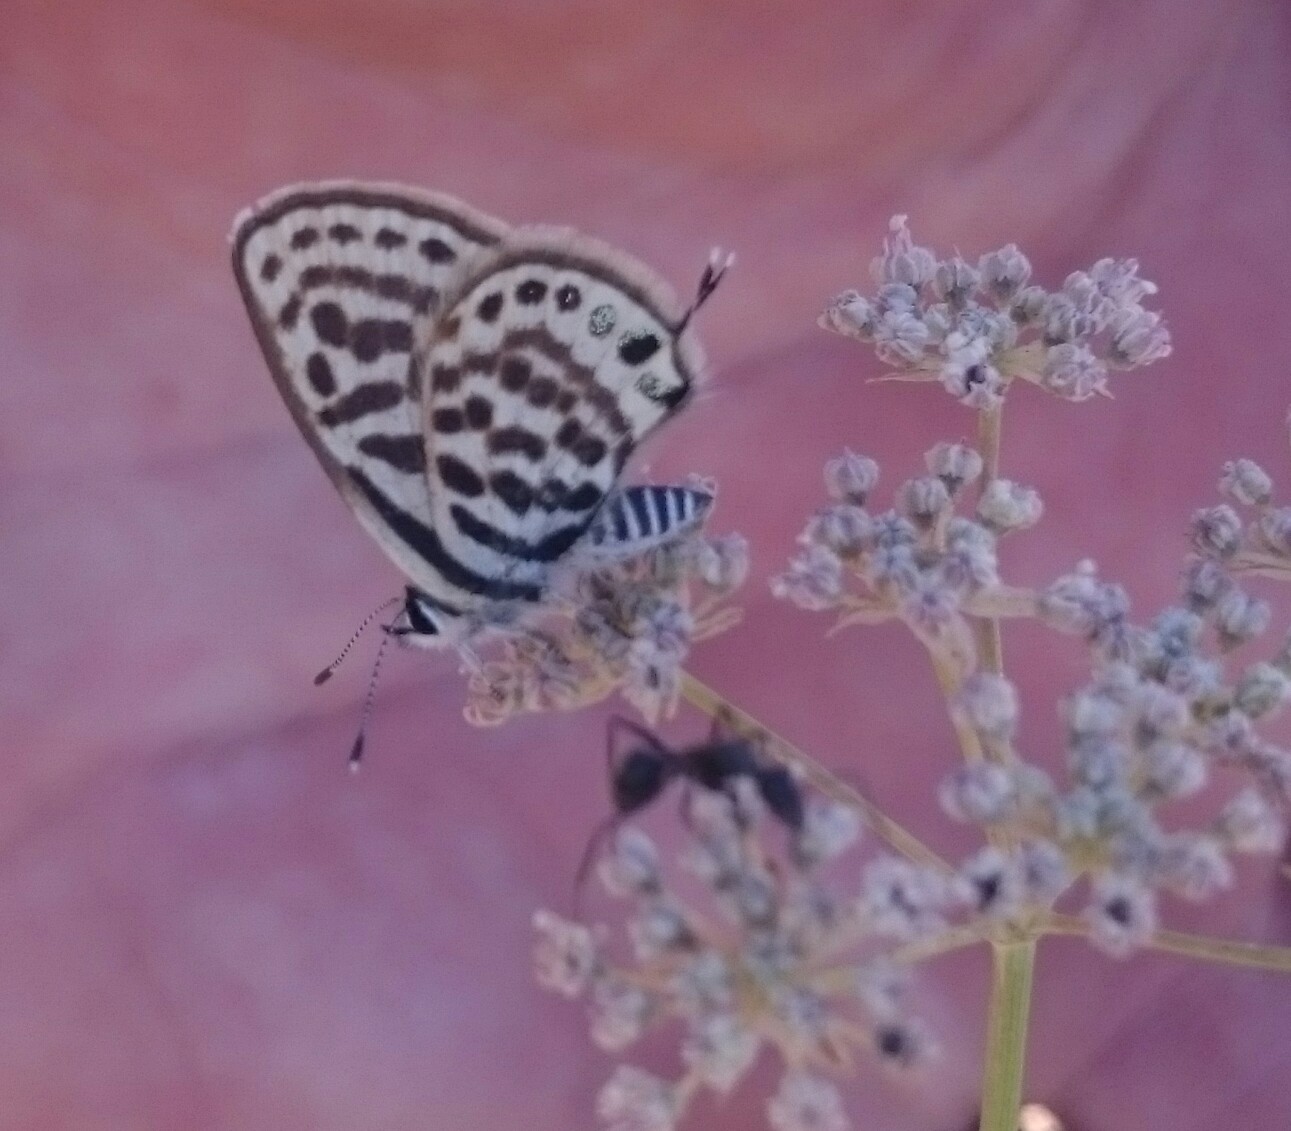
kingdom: Animalia
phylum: Arthropoda
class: Insecta
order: Lepidoptera
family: Lycaenidae
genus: Tarucus
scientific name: Tarucus rosacea
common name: Mediterranean pierrot
